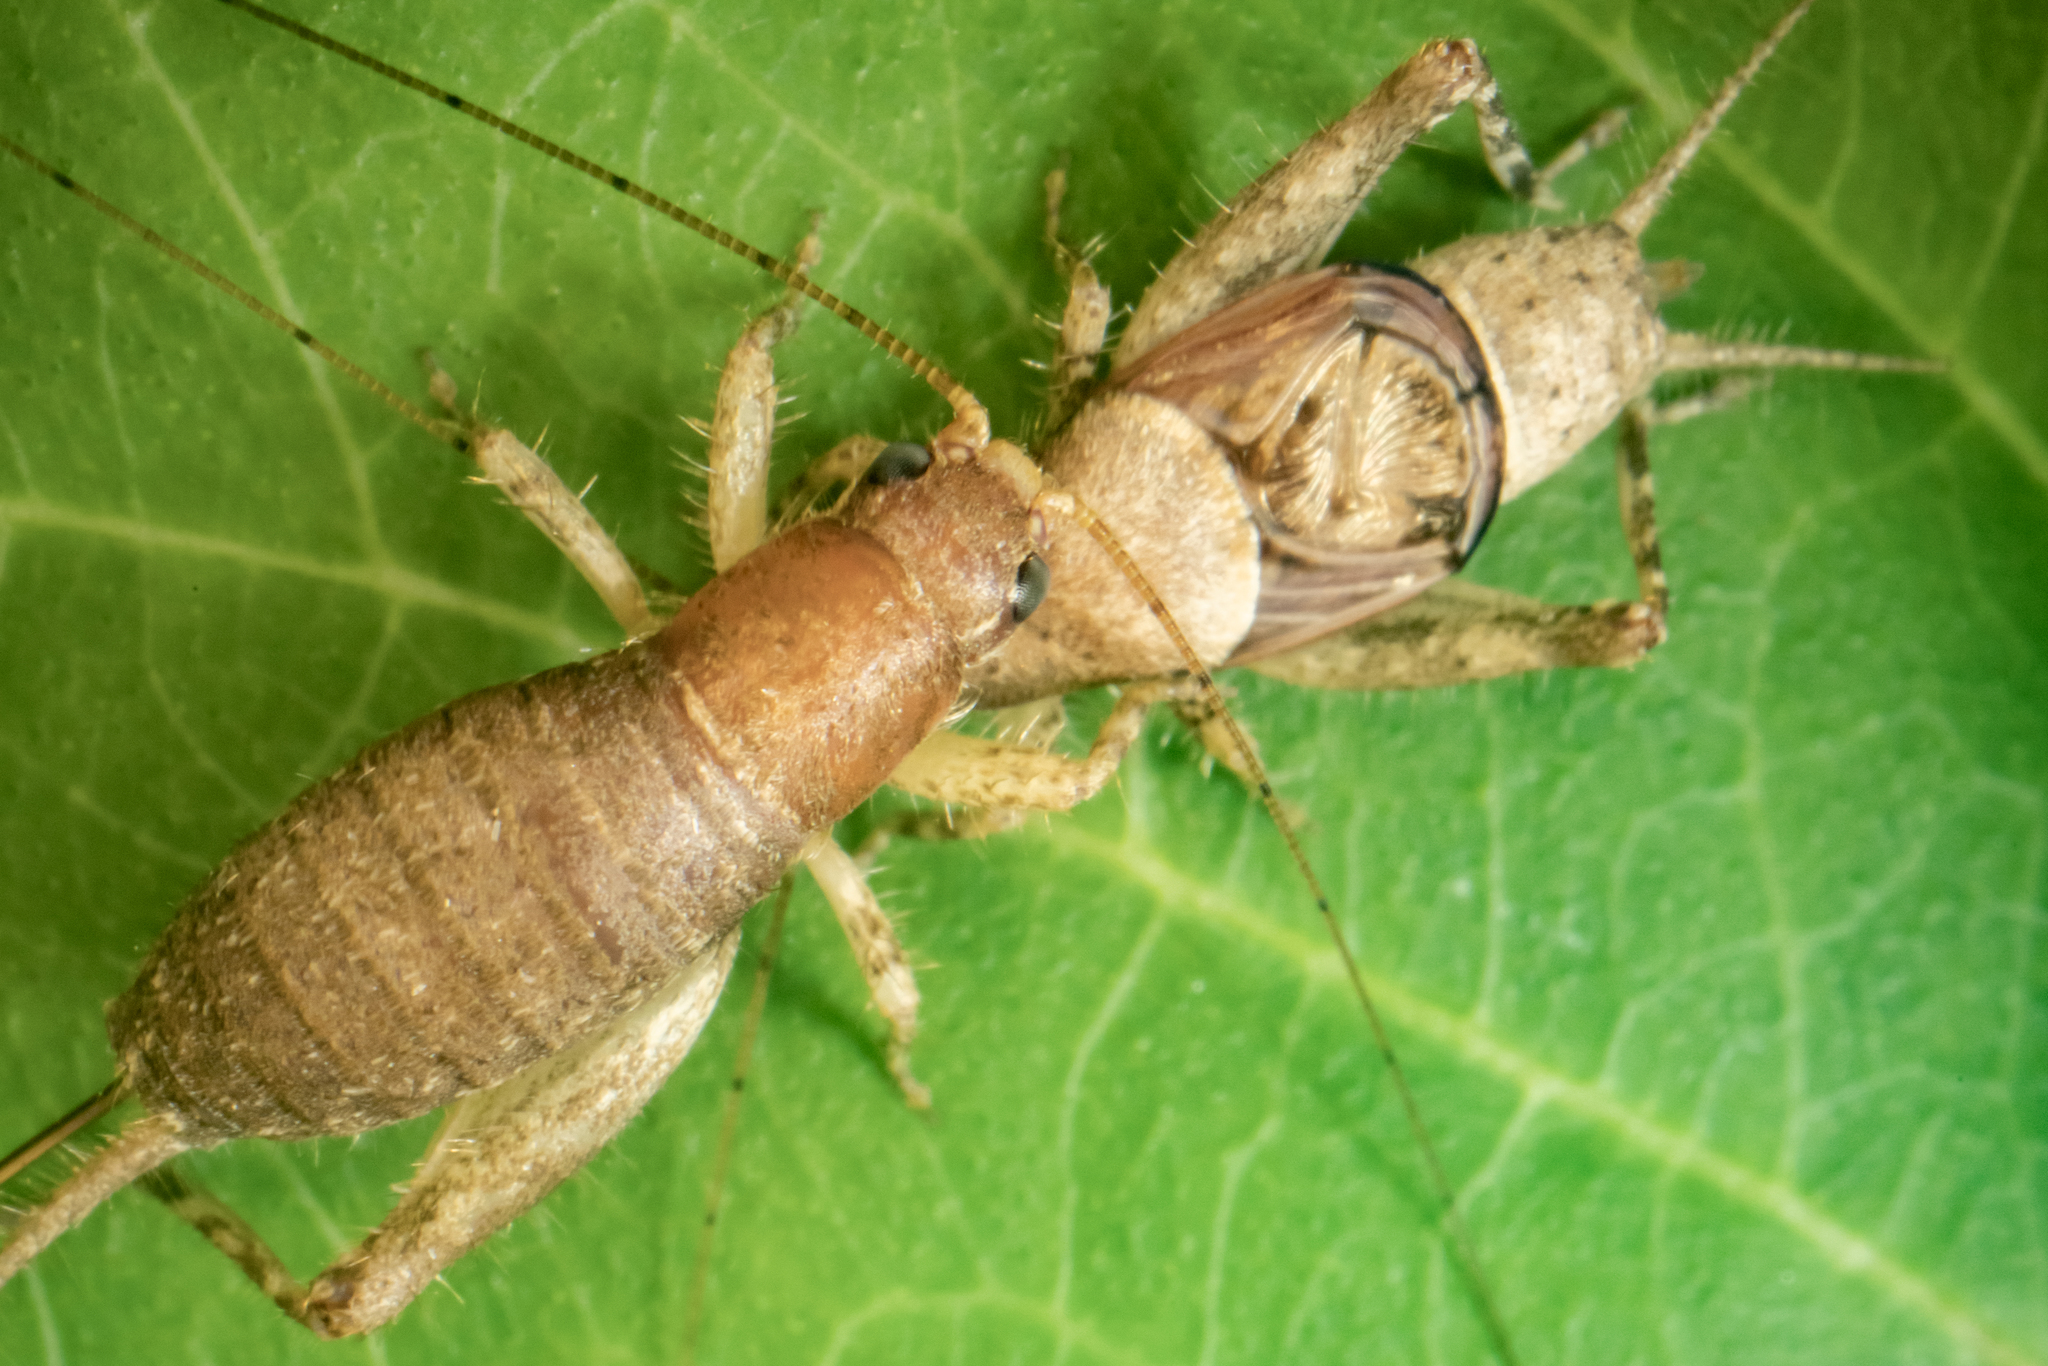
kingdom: Animalia
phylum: Arthropoda
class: Insecta
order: Orthoptera
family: Mogoplistidae
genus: Ornebius
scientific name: Ornebius aperta
